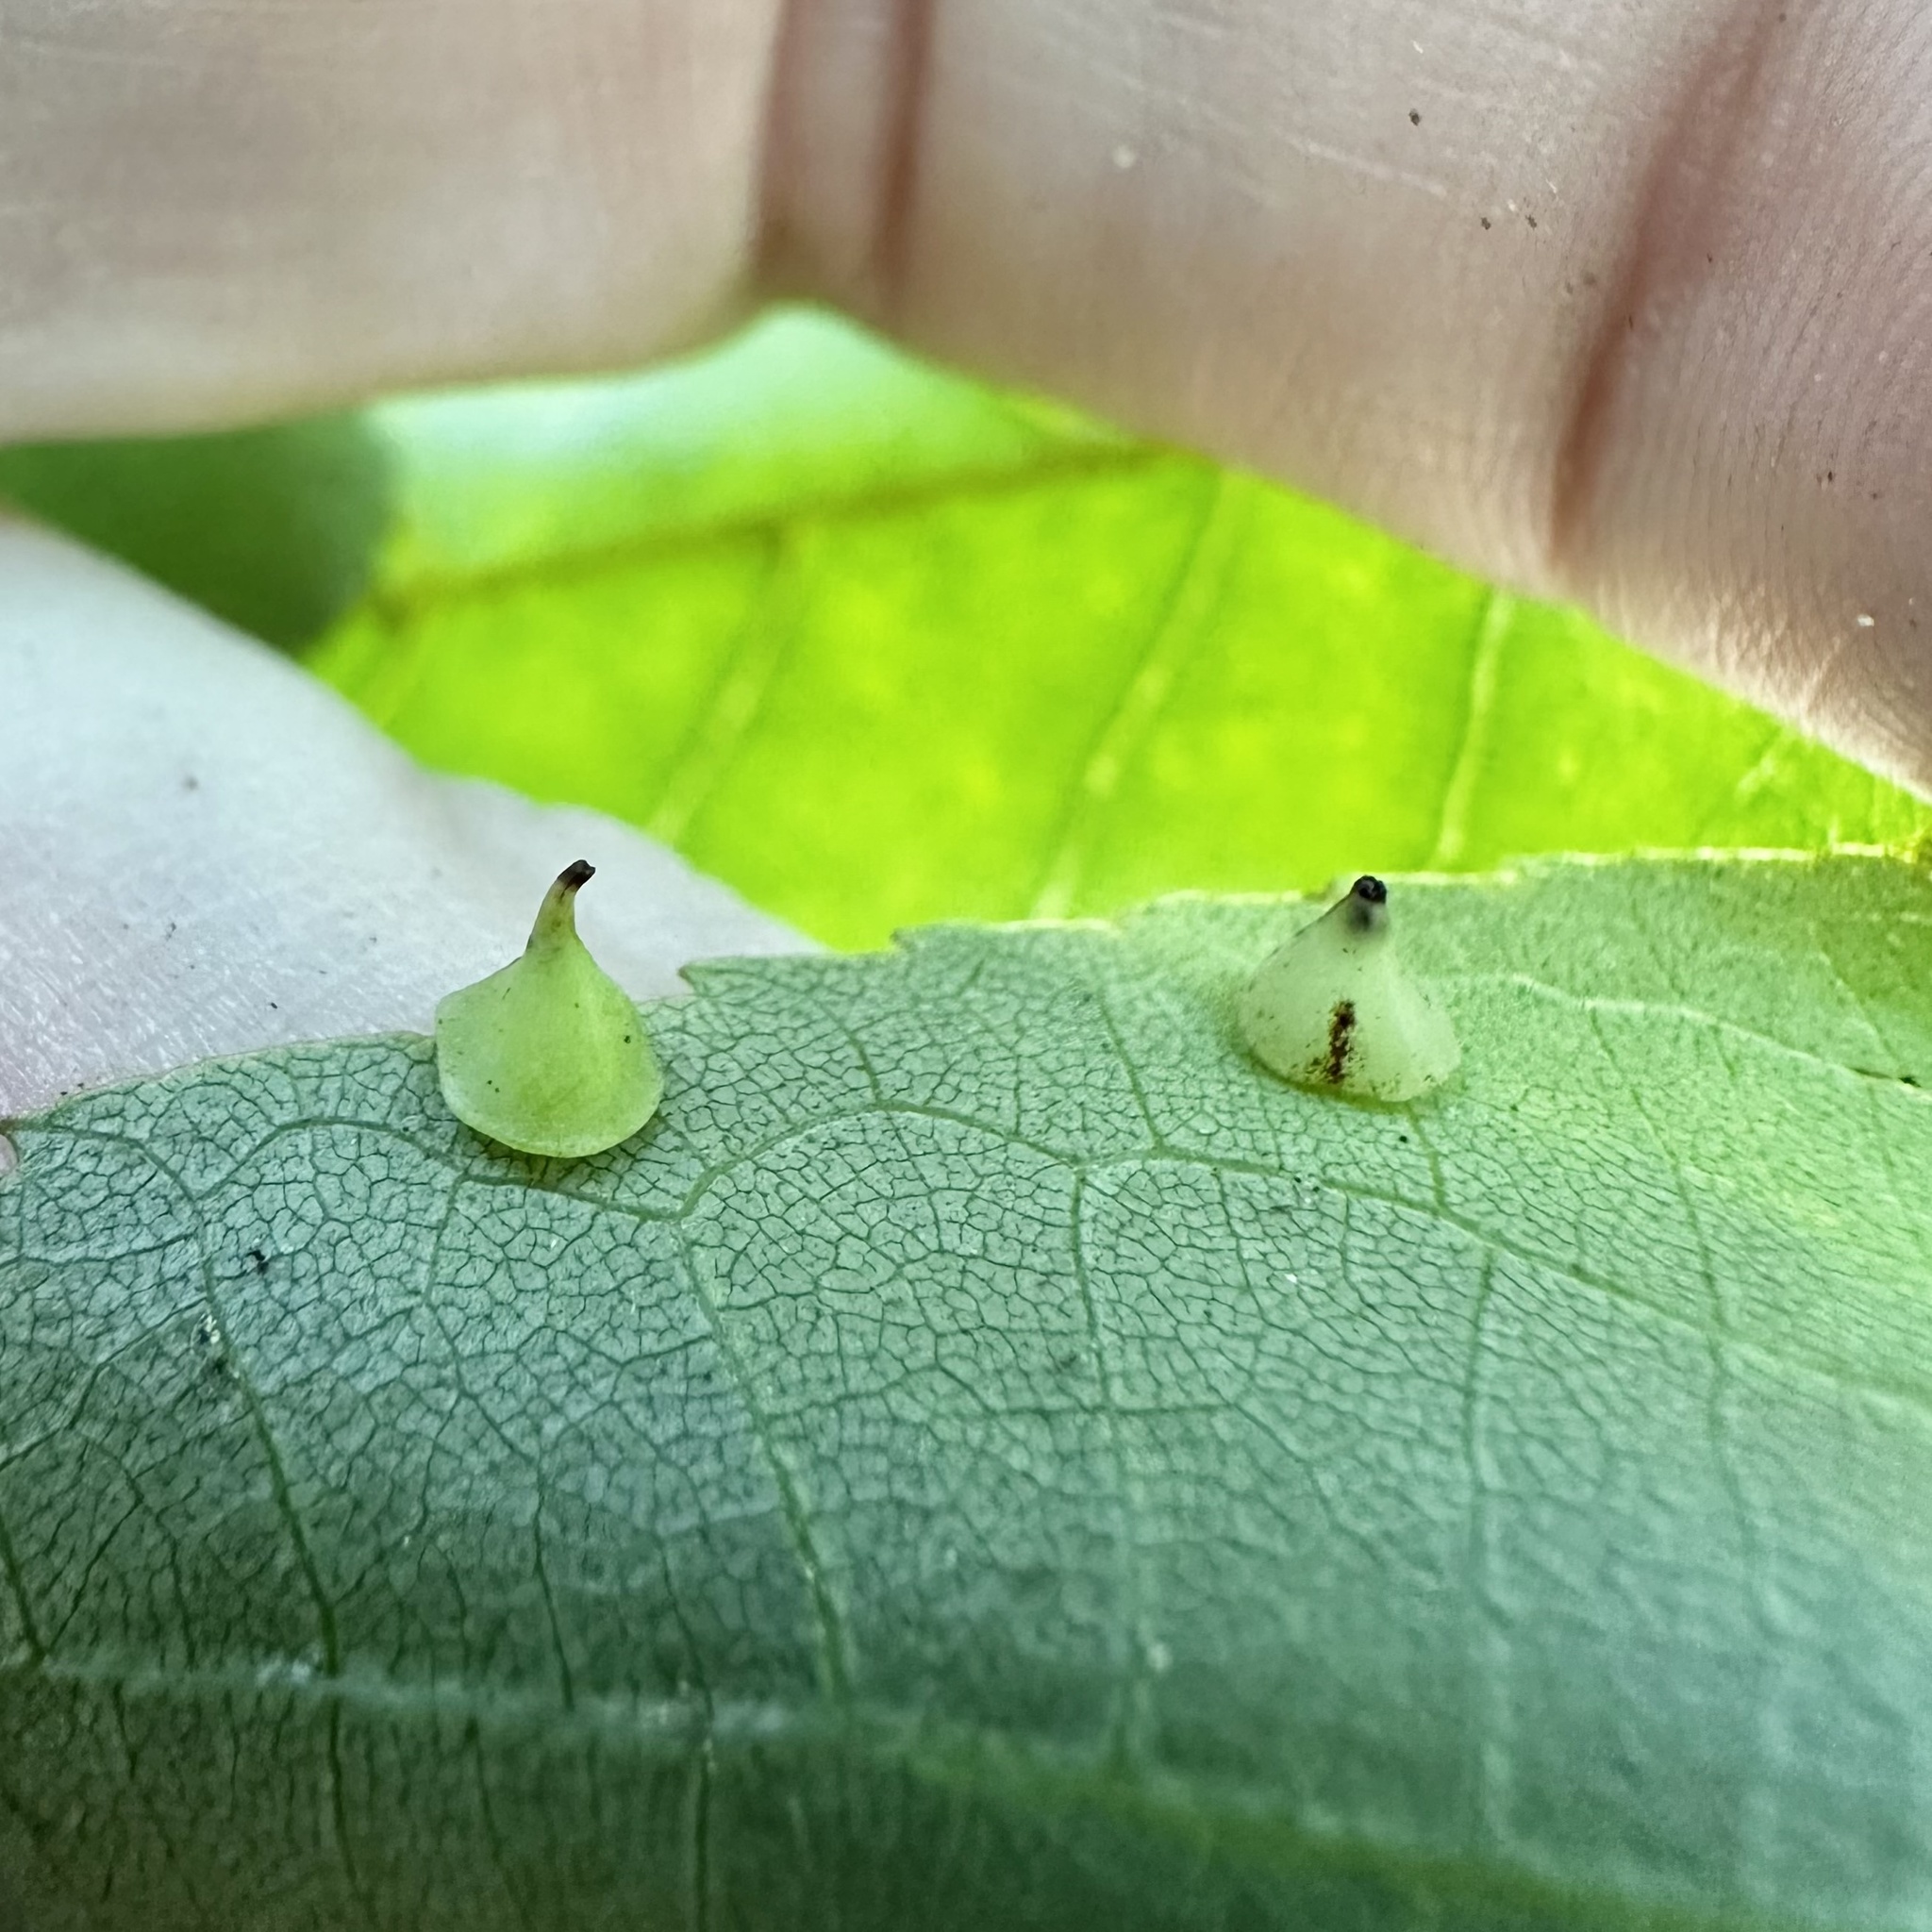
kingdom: Animalia
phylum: Arthropoda
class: Insecta
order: Diptera
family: Cecidomyiidae
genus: Caryomyia
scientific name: Caryomyia sanguinolenta
